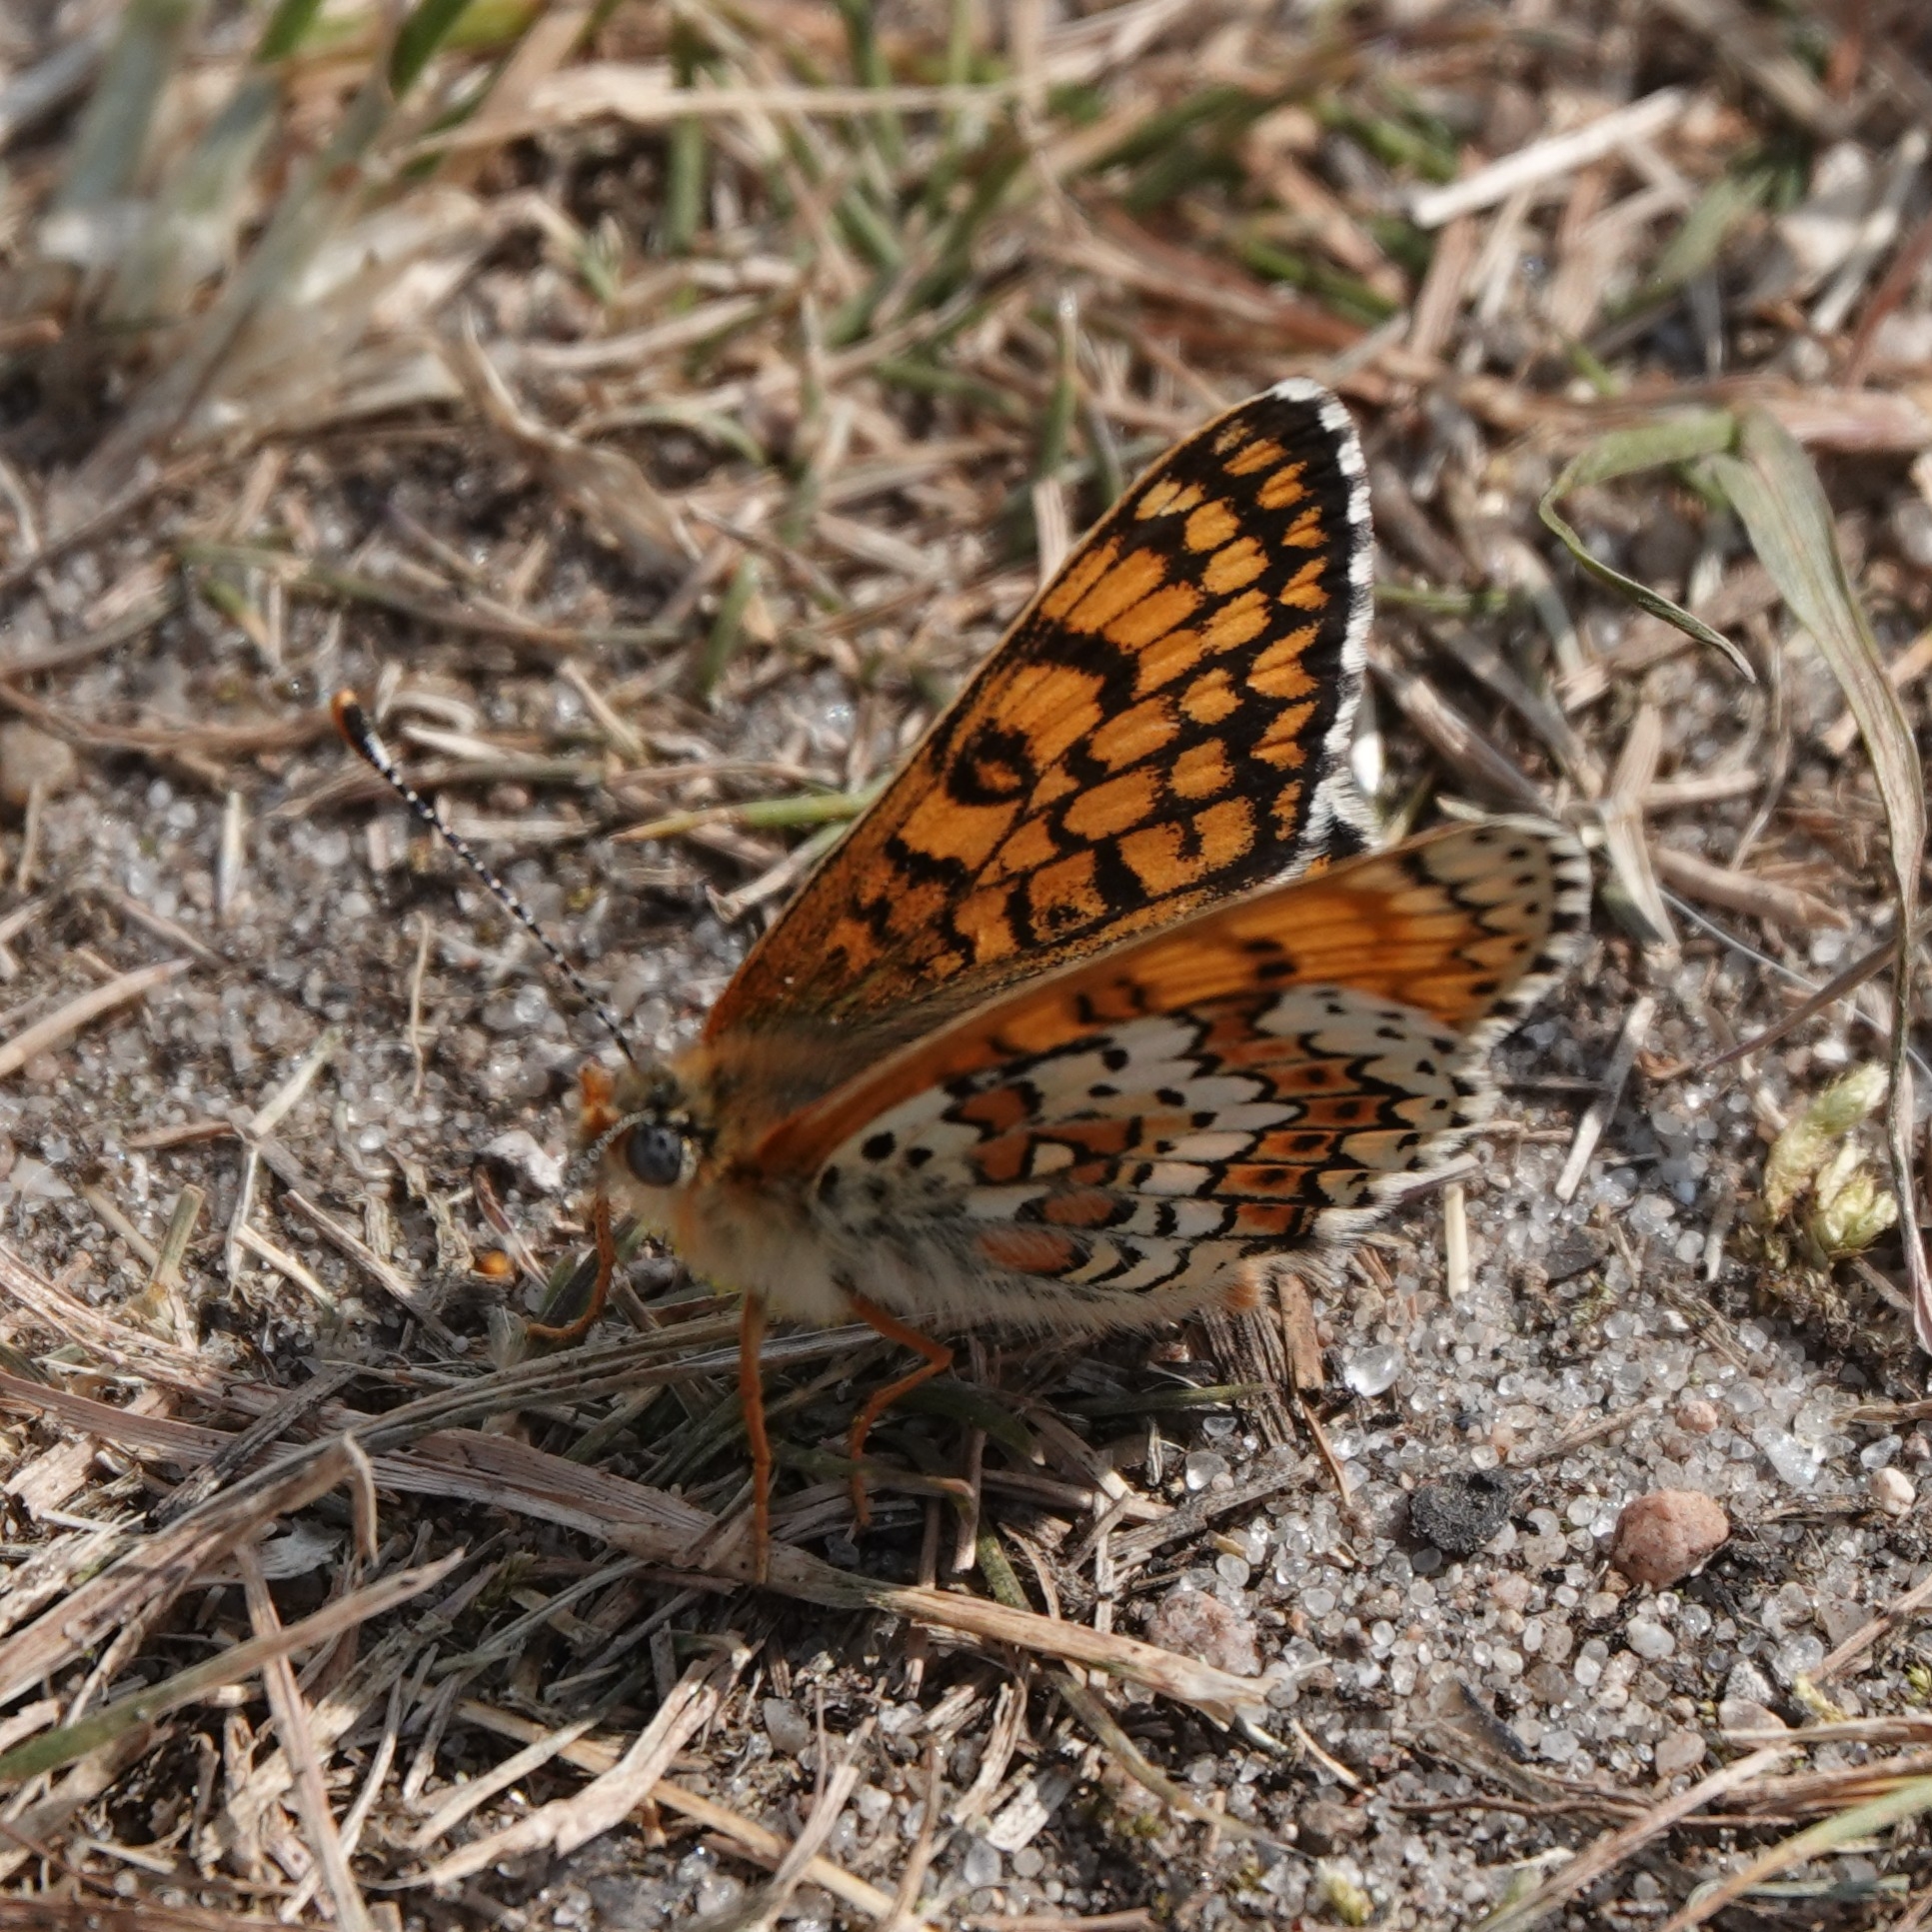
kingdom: Animalia
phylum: Arthropoda
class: Insecta
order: Lepidoptera
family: Nymphalidae
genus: Melitaea
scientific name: Melitaea cinxia
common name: Glanville fritillary
